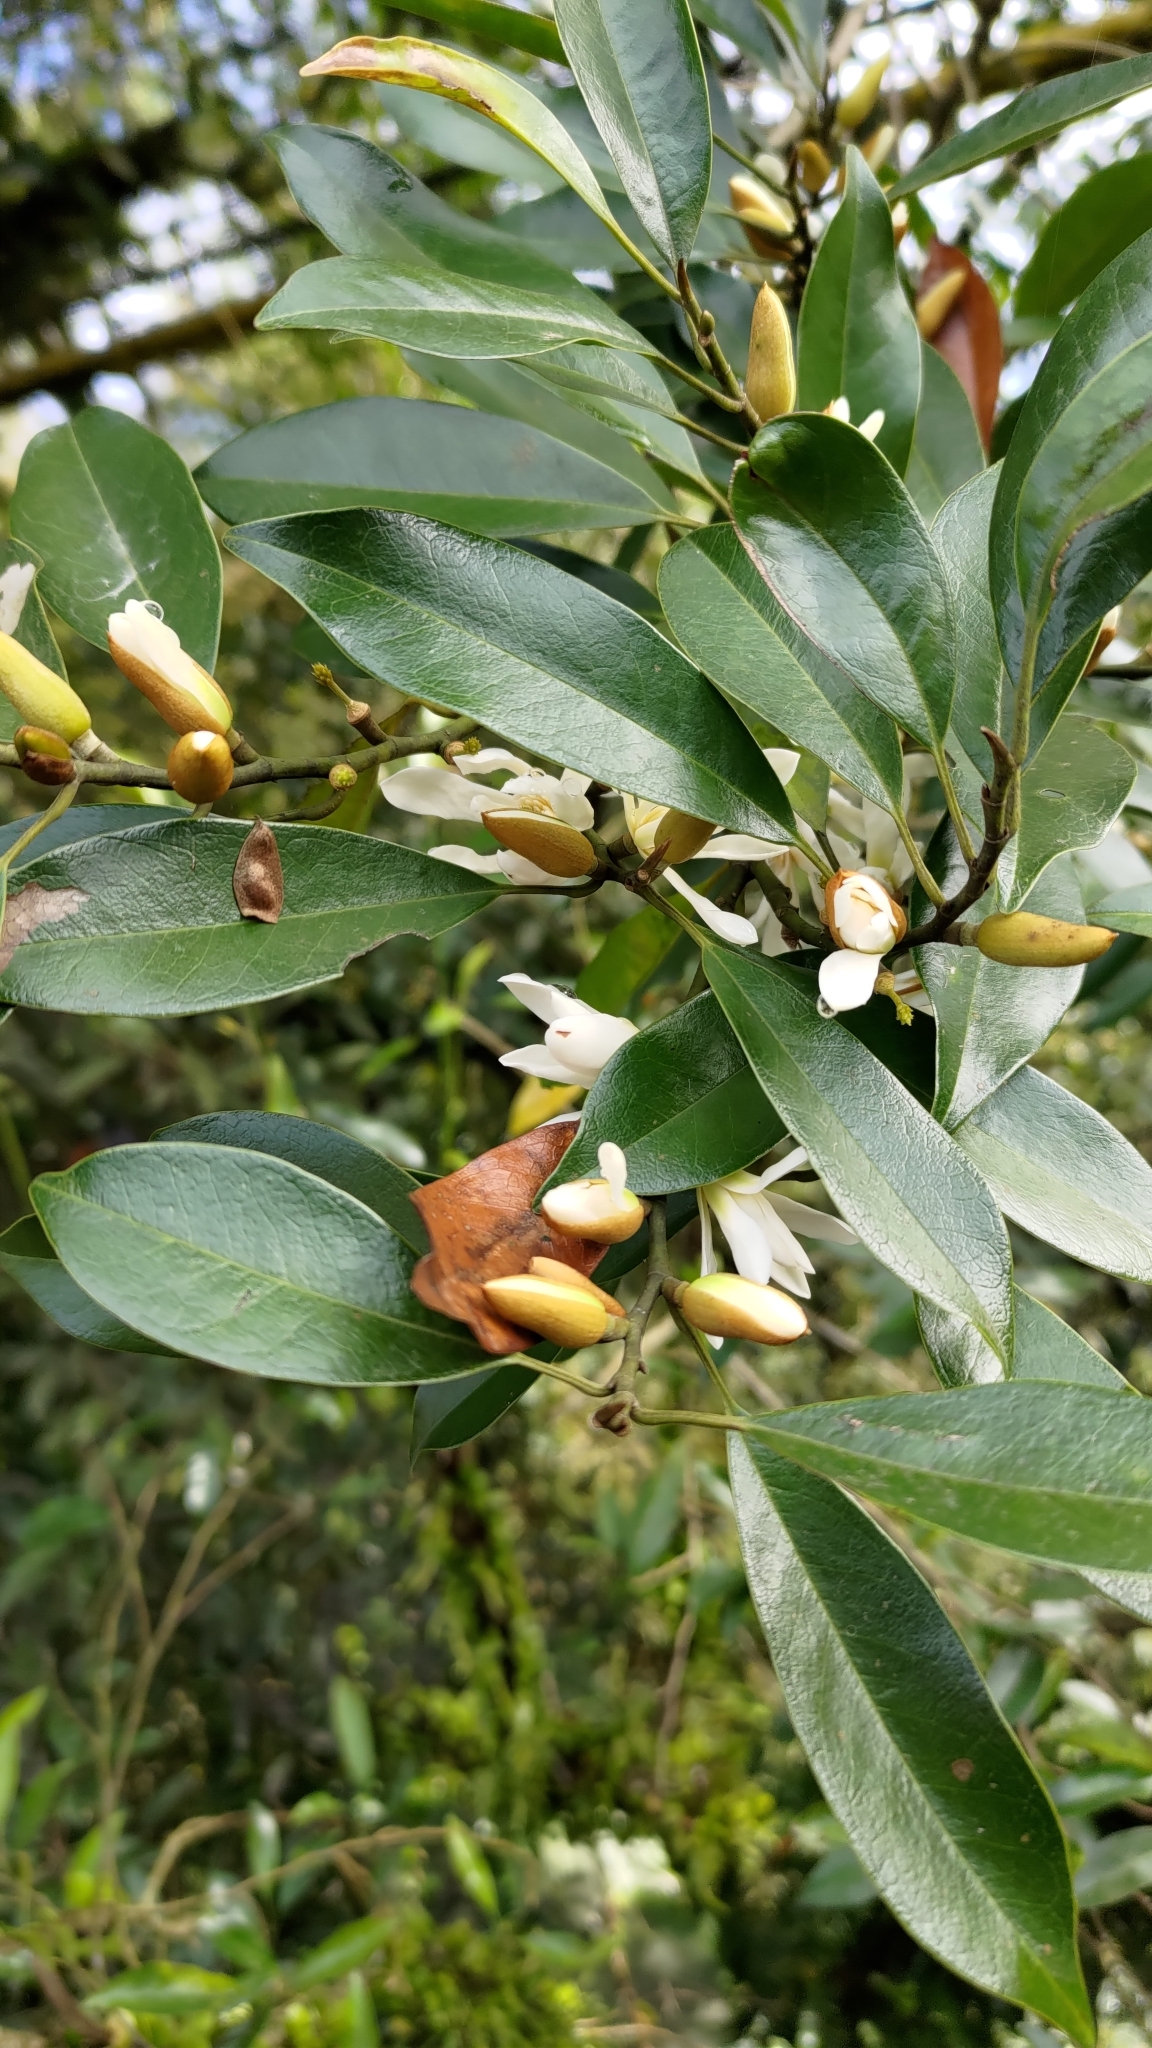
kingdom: Plantae
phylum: Tracheophyta
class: Magnoliopsida
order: Magnoliales
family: Magnoliaceae
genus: Magnolia
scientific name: Magnolia compressa
